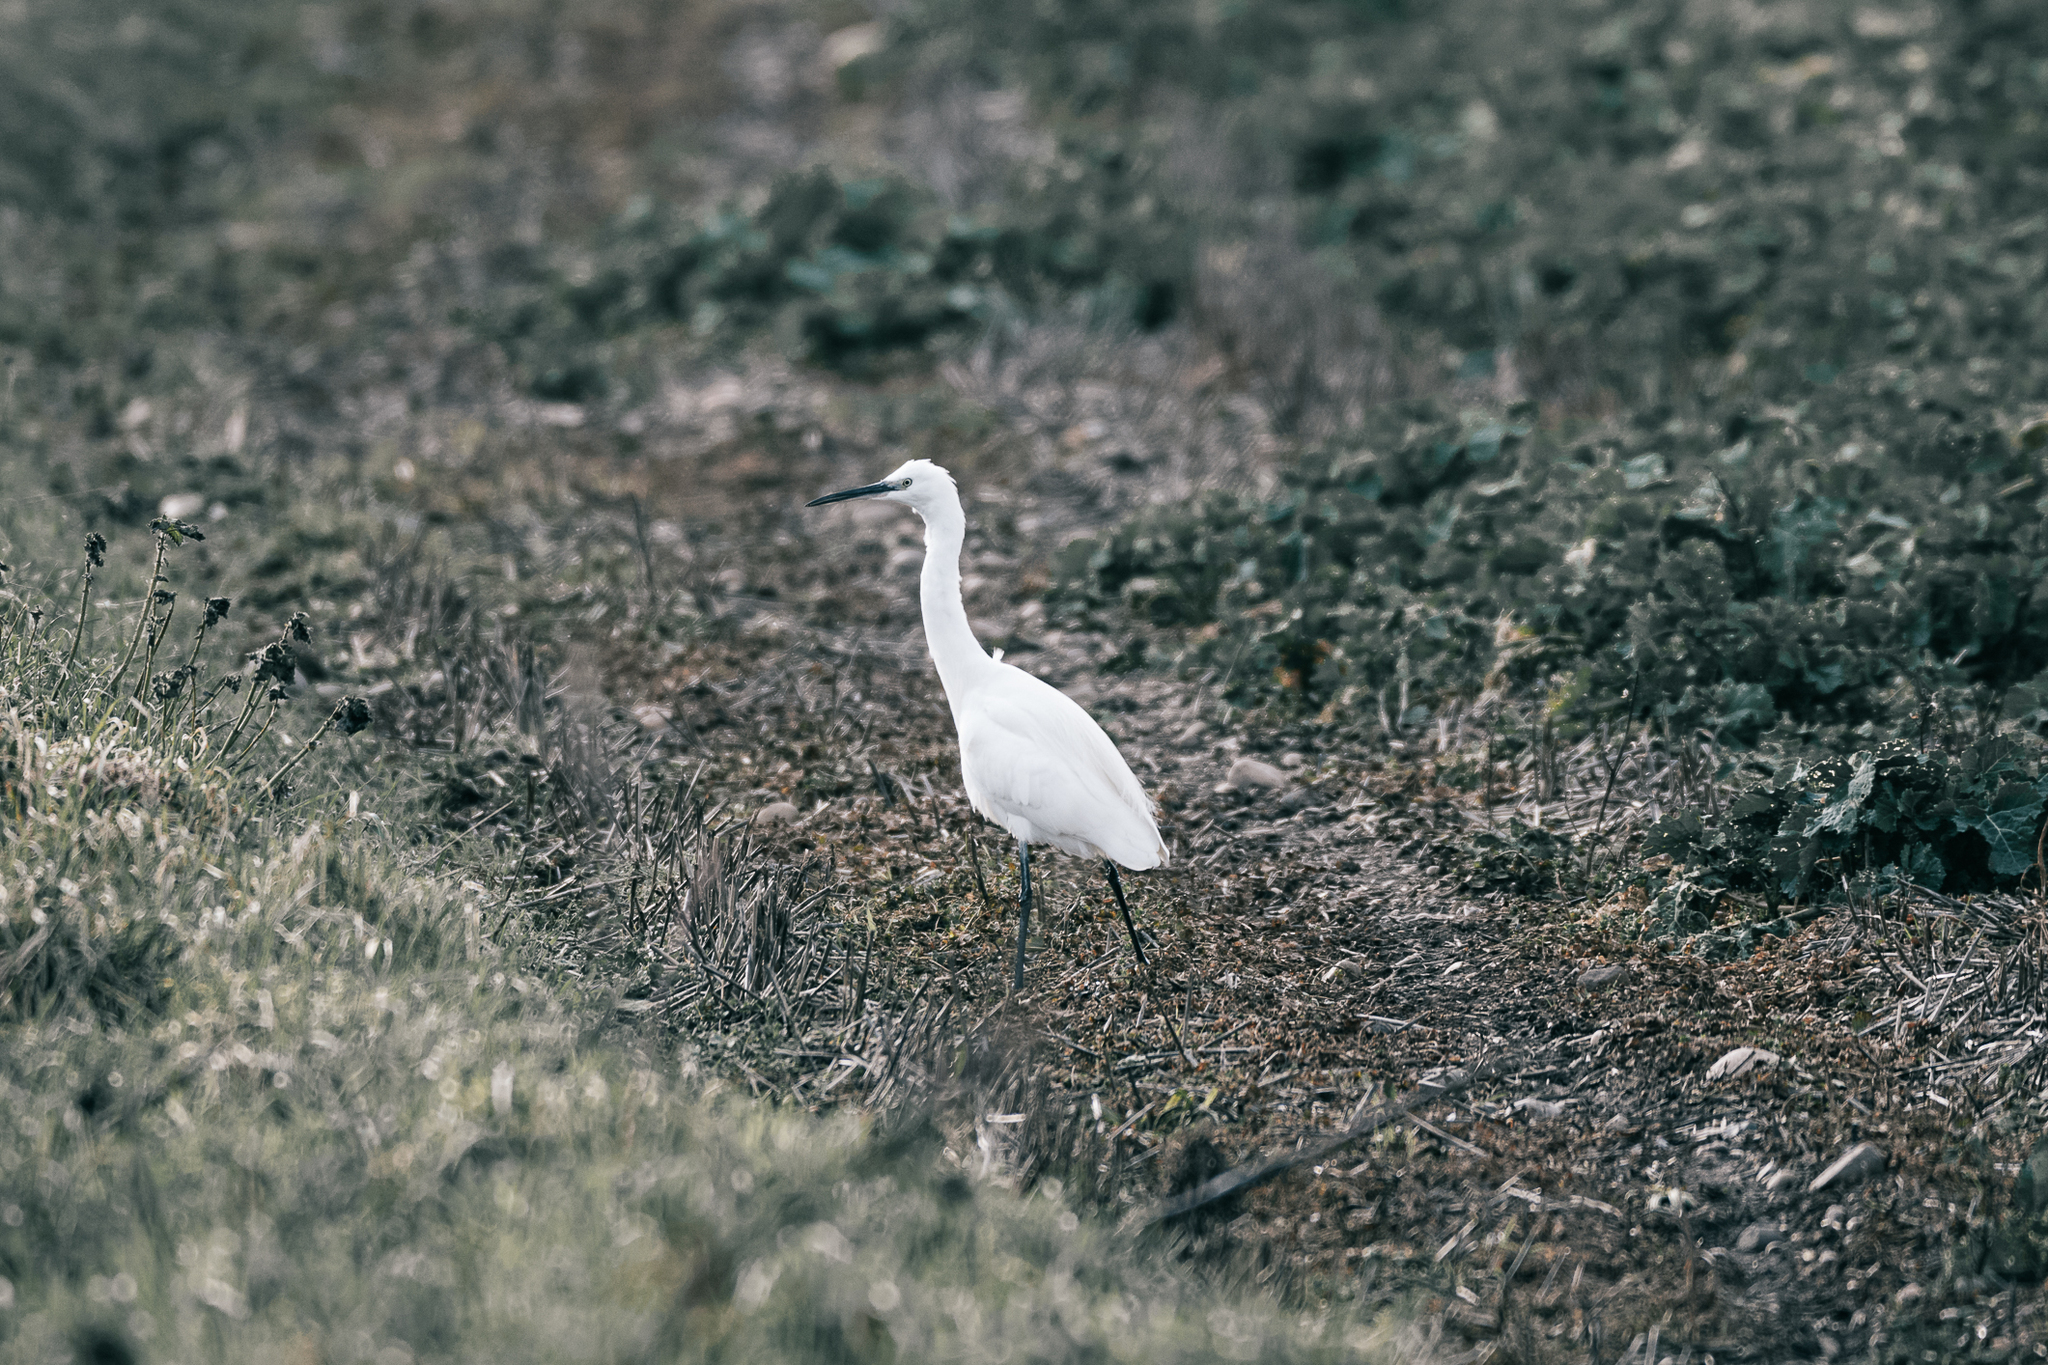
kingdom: Animalia
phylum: Chordata
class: Aves
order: Pelecaniformes
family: Ardeidae
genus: Egretta
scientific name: Egretta garzetta
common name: Little egret
